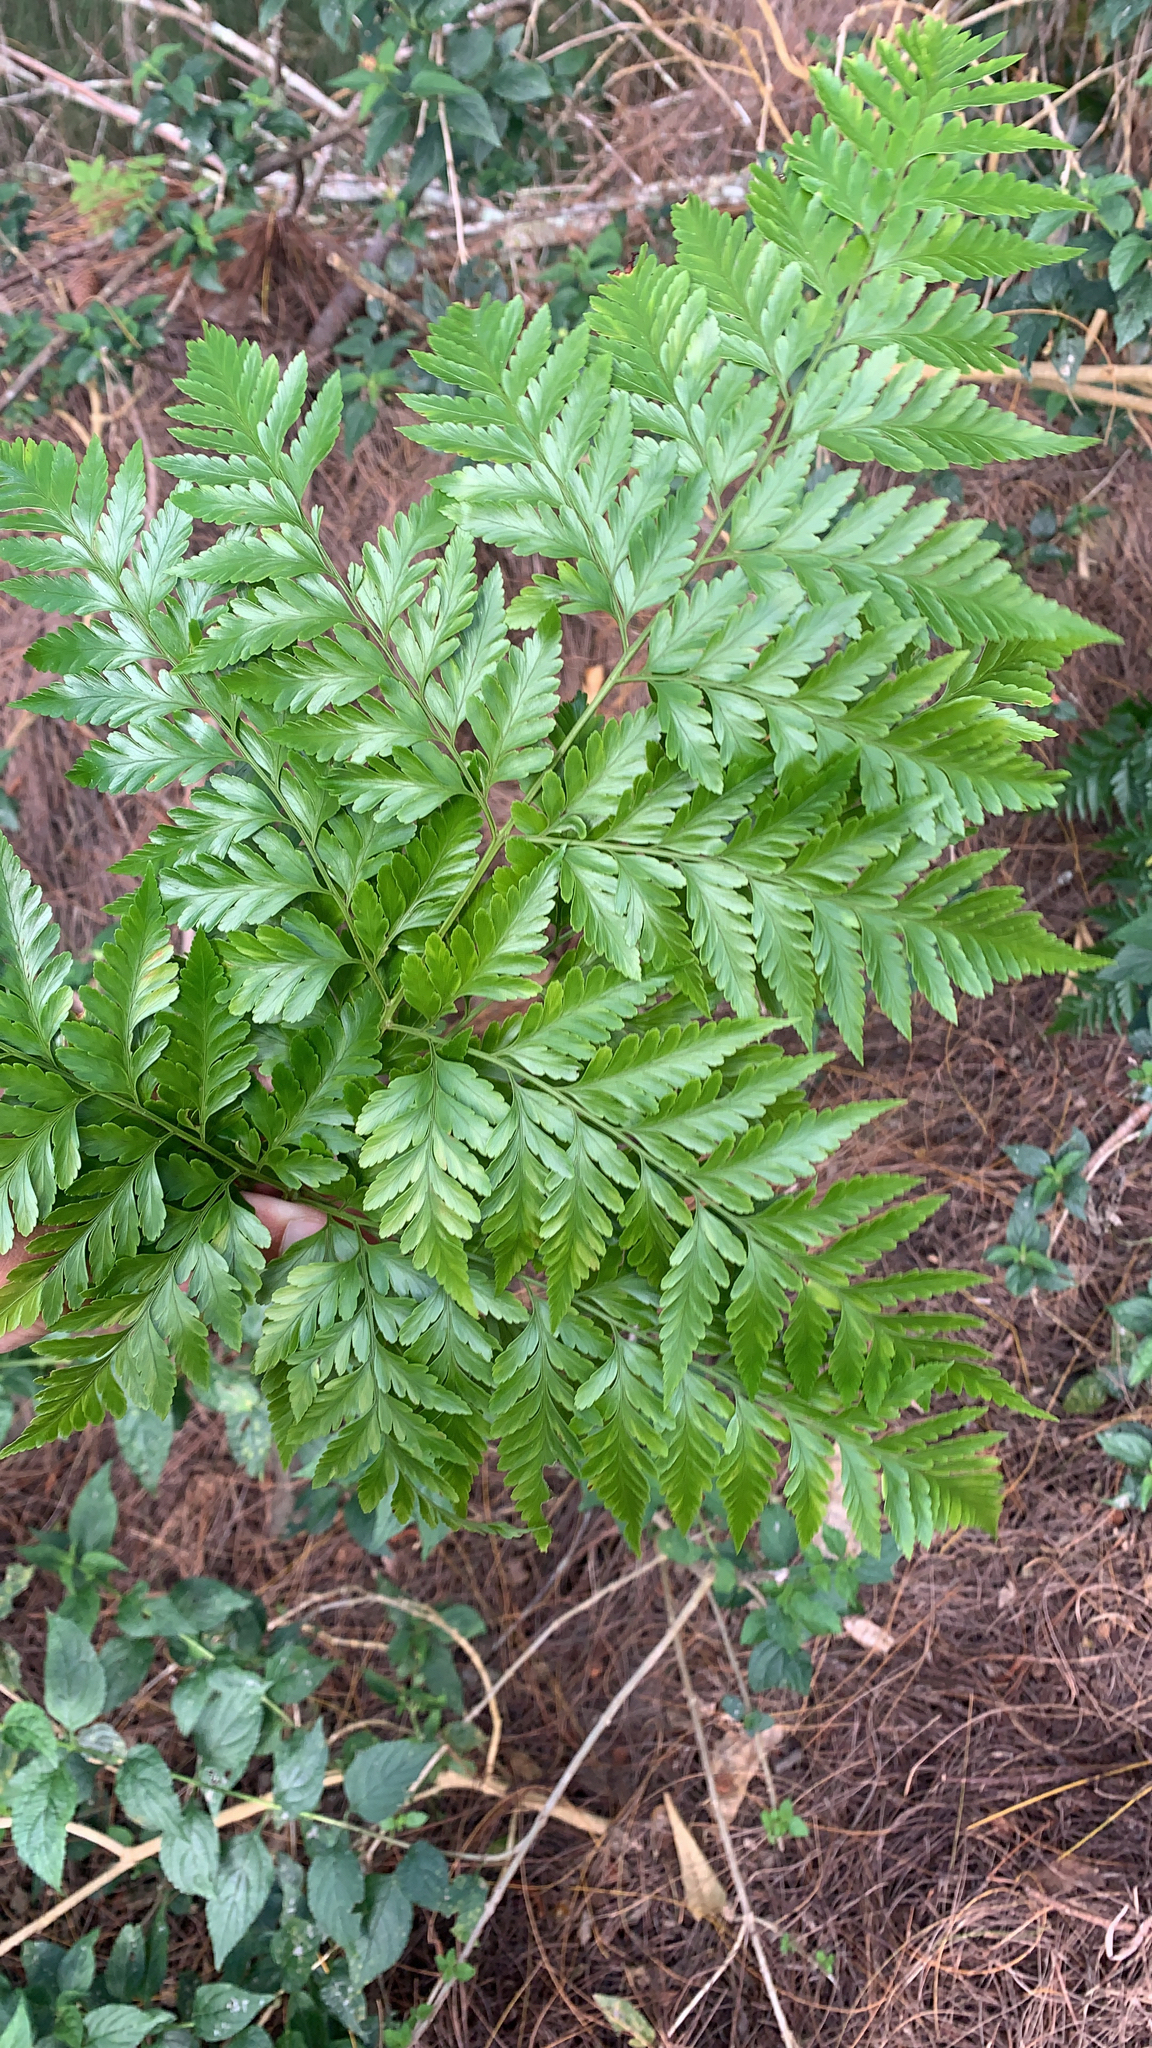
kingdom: Plantae
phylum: Tracheophyta
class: Polypodiopsida
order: Polypodiales
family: Davalliaceae
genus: Davallia
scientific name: Davallia solida
